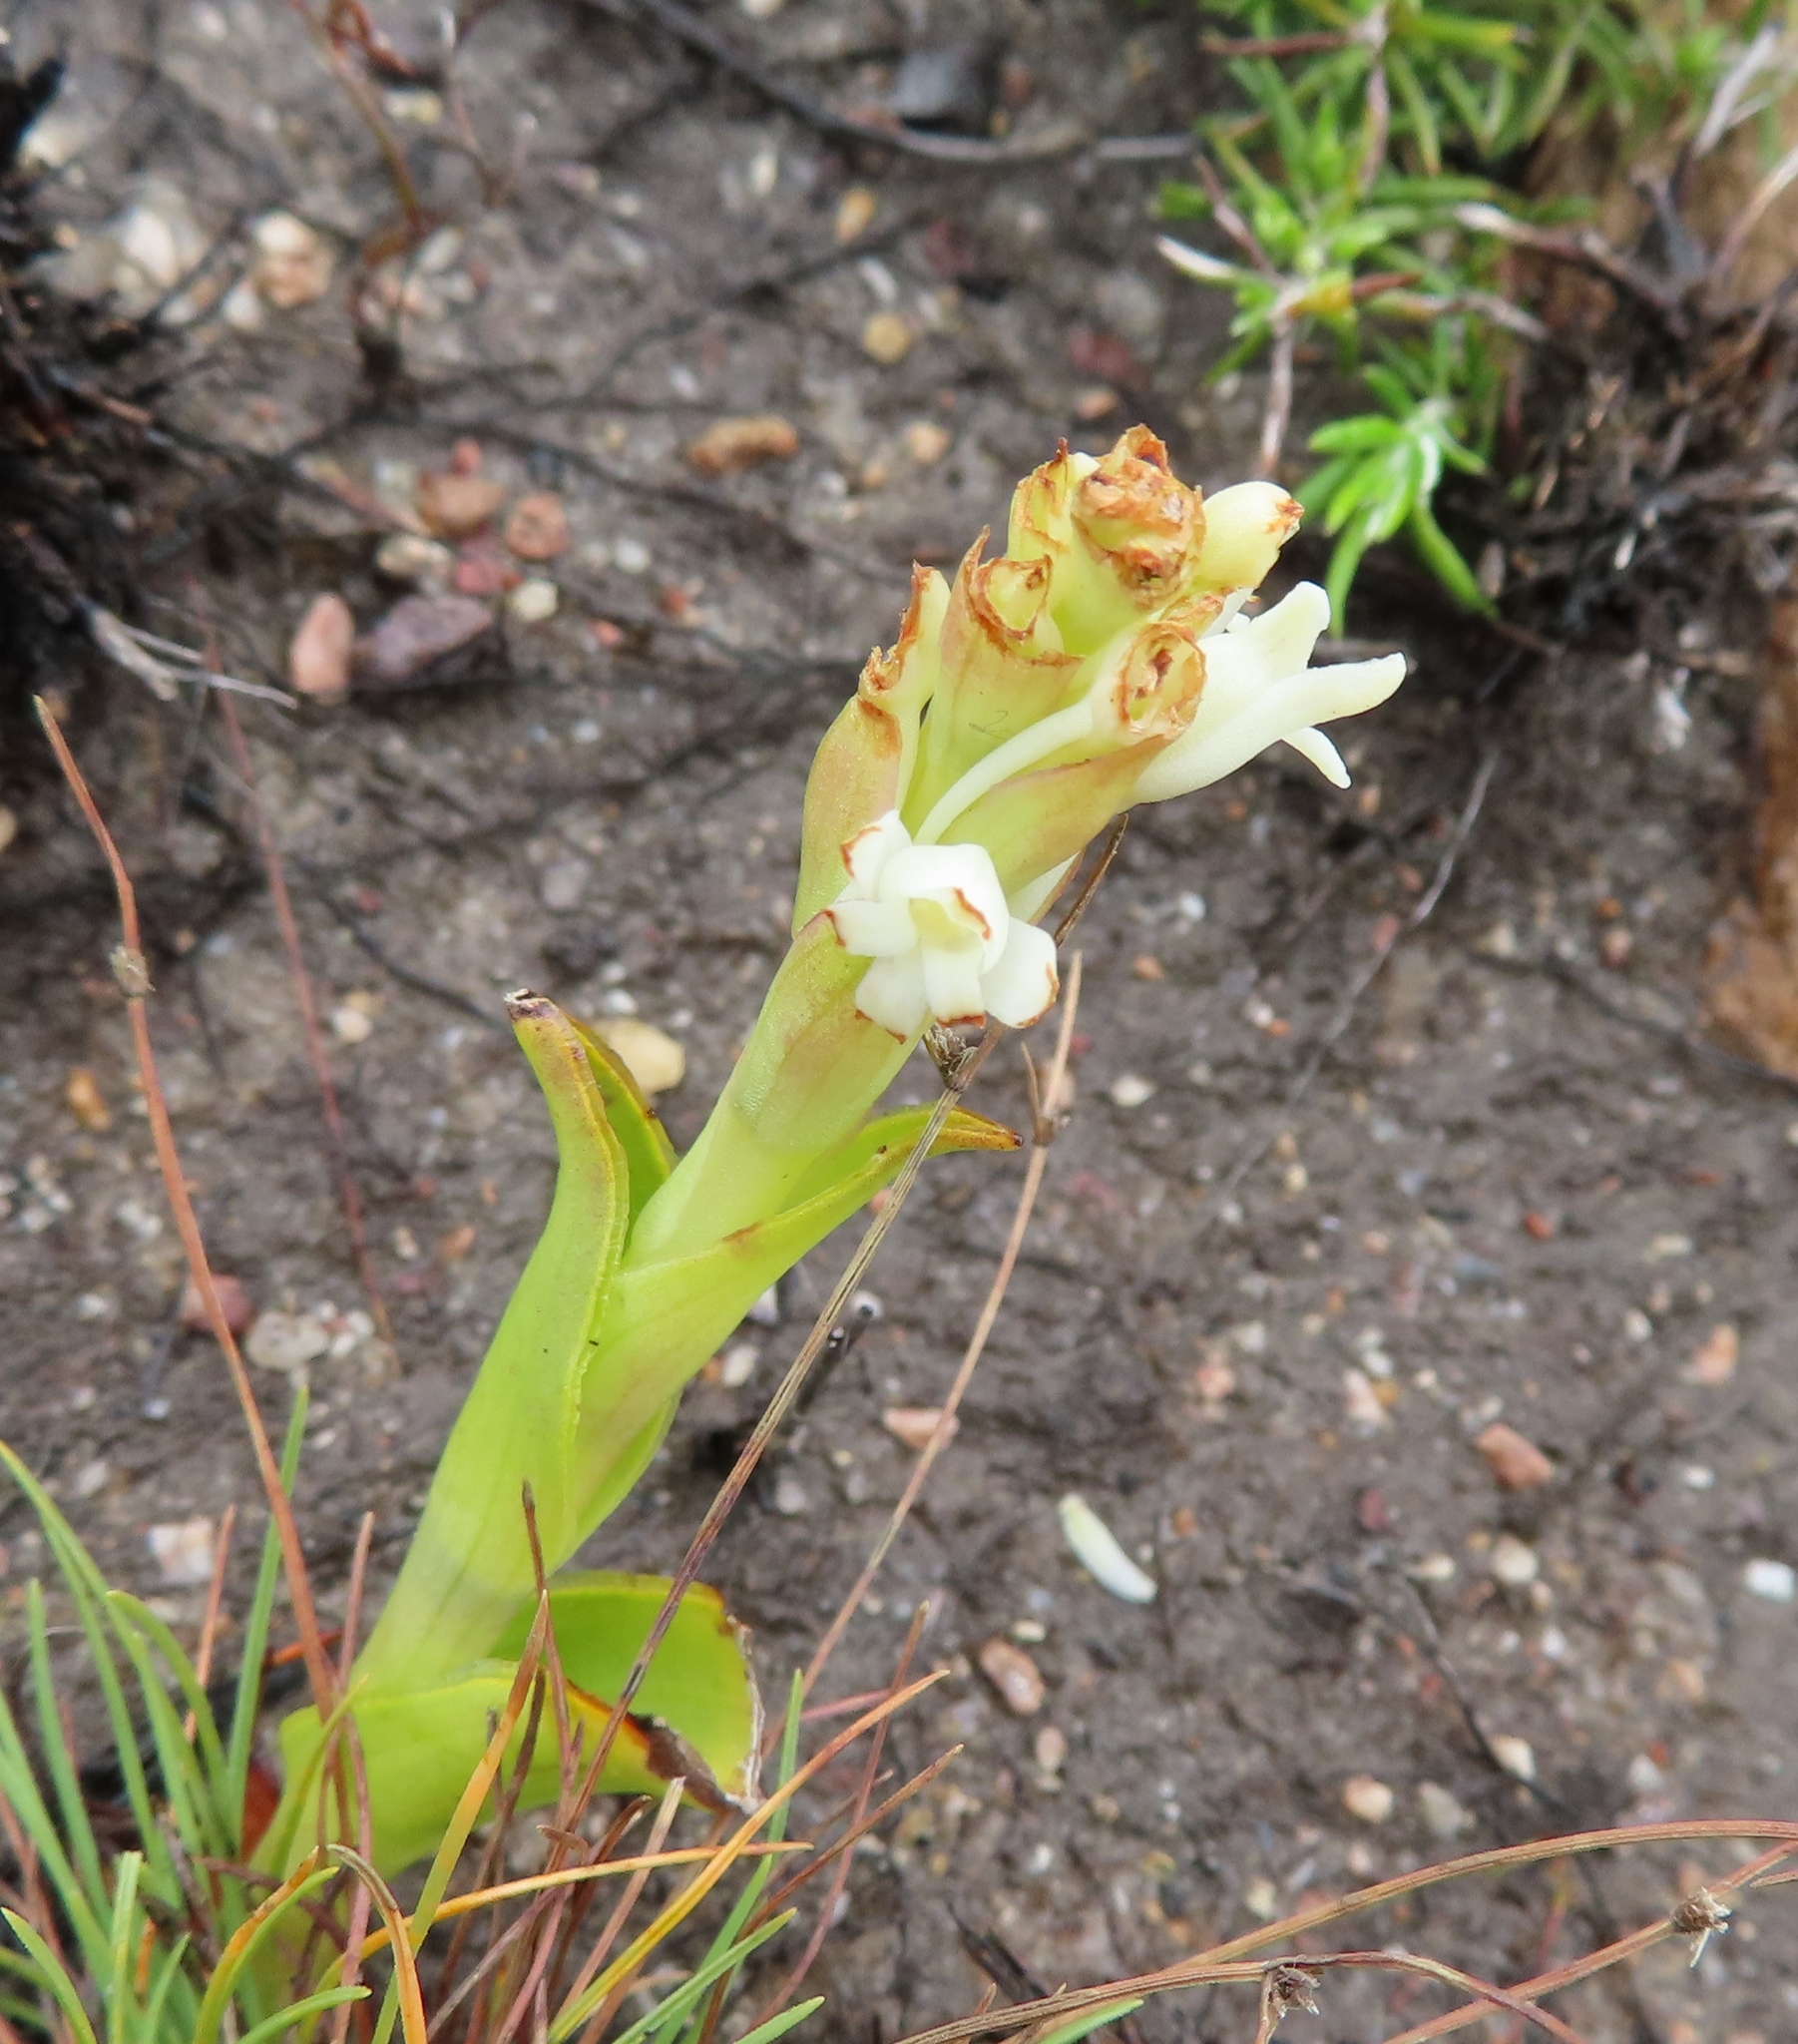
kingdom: Plantae
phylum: Tracheophyta
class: Liliopsida
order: Asparagales
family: Orchidaceae
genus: Satyrium
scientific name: Satyrium stenopetalum
